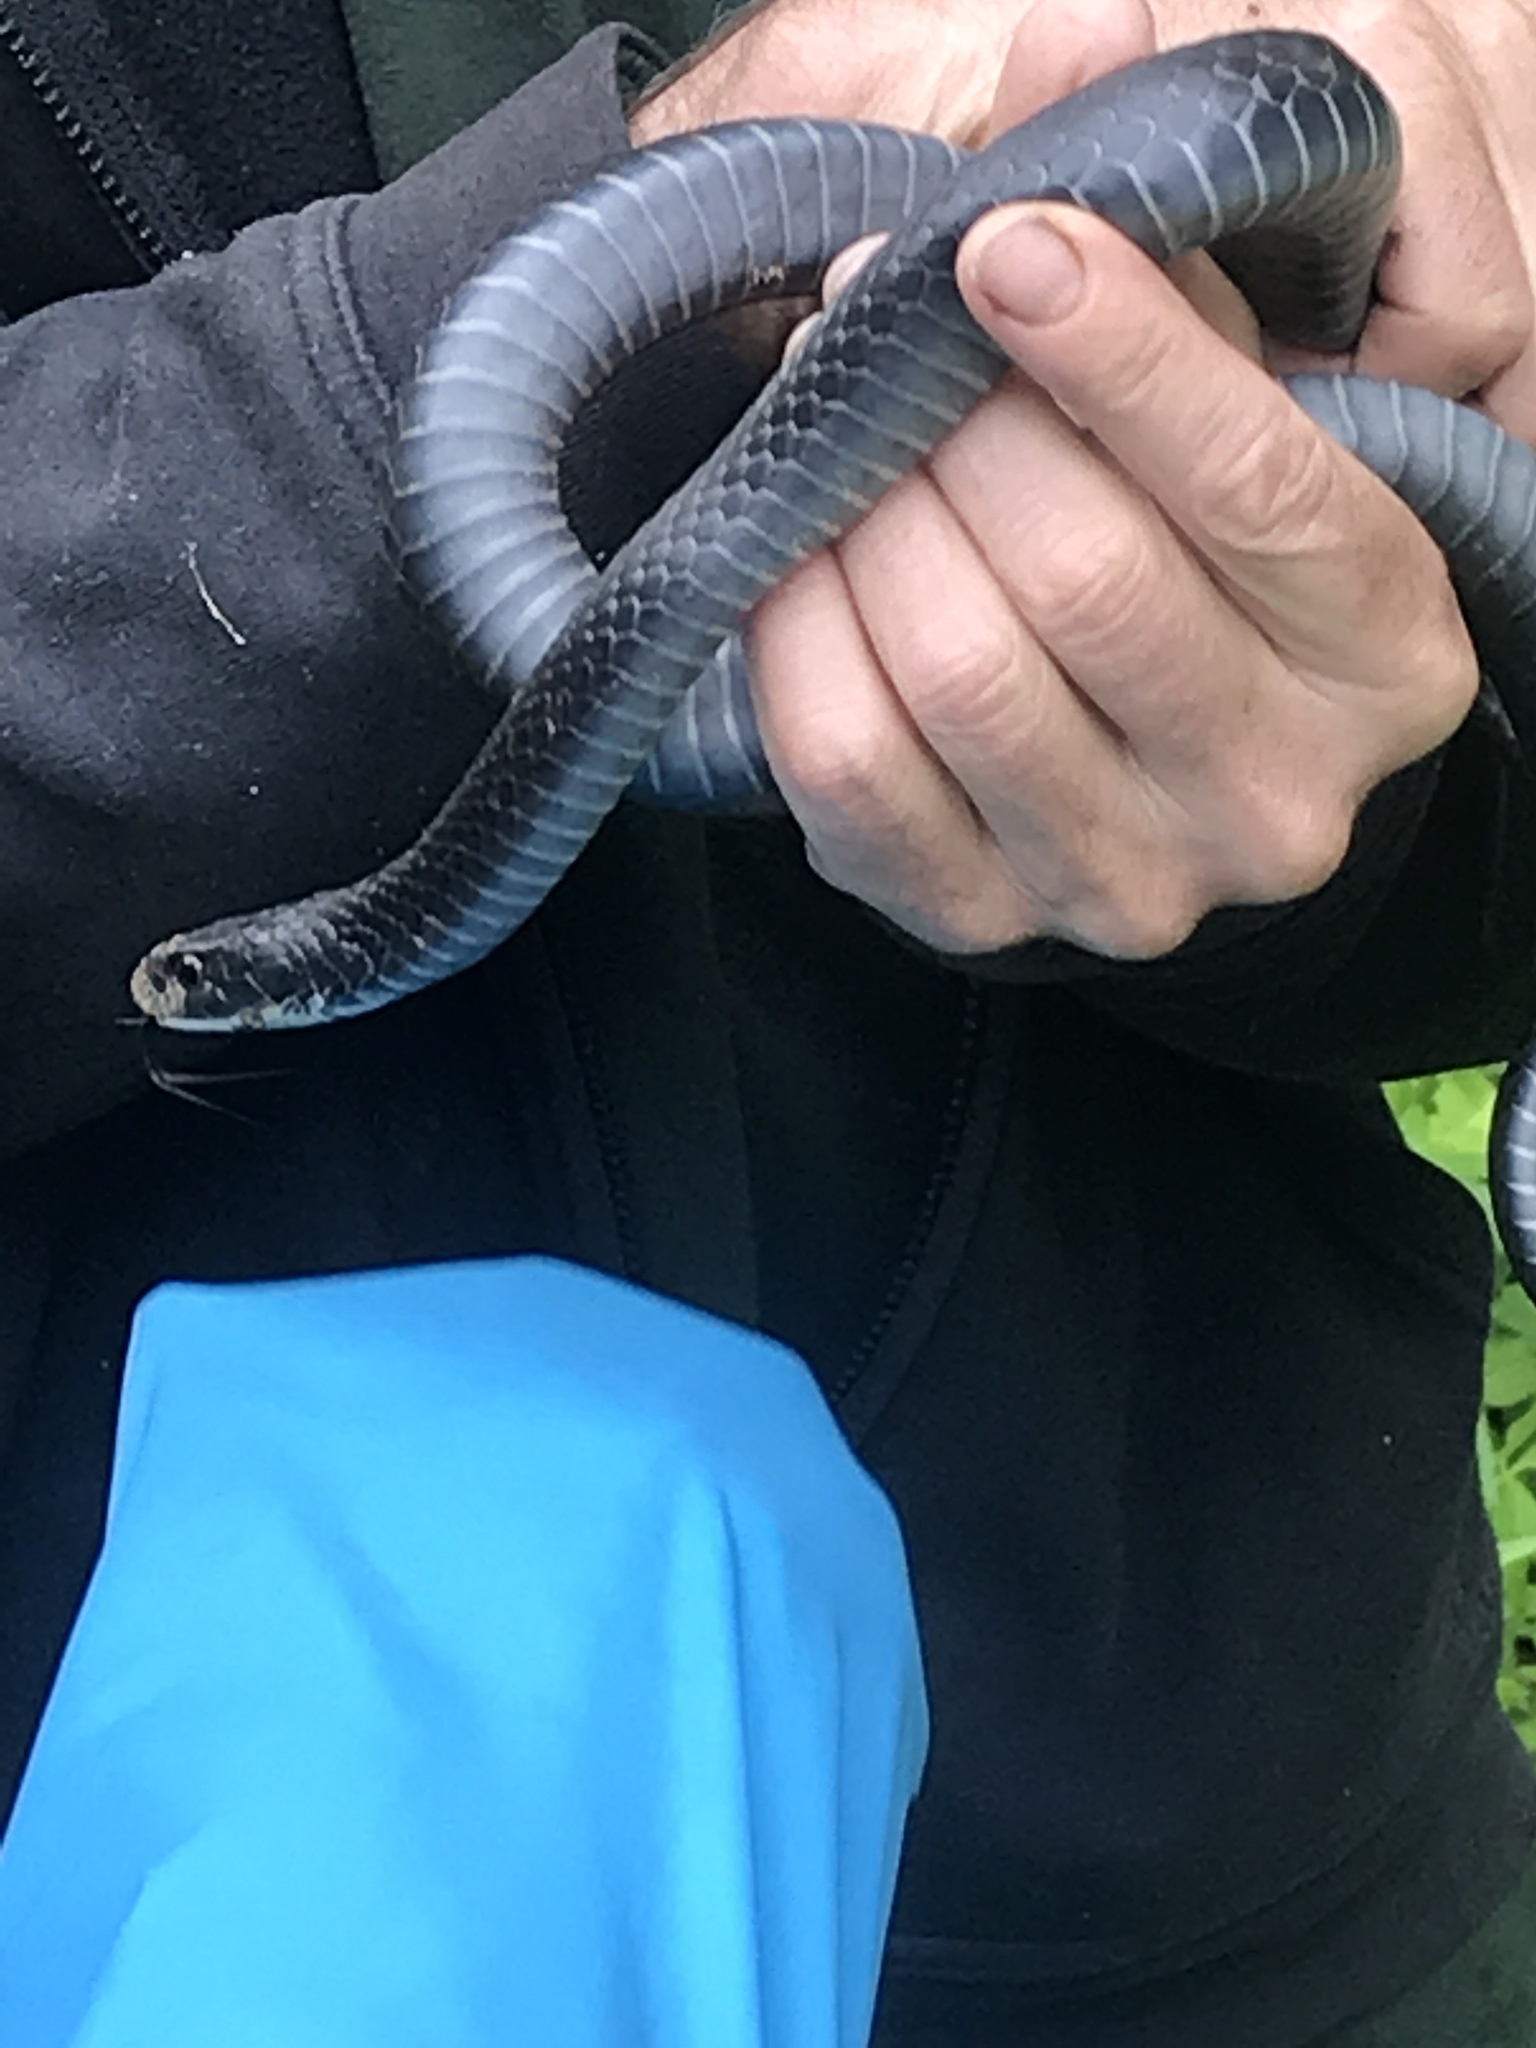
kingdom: Animalia
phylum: Chordata
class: Squamata
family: Colubridae
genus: Coluber
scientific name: Coluber constrictor
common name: Eastern racer
